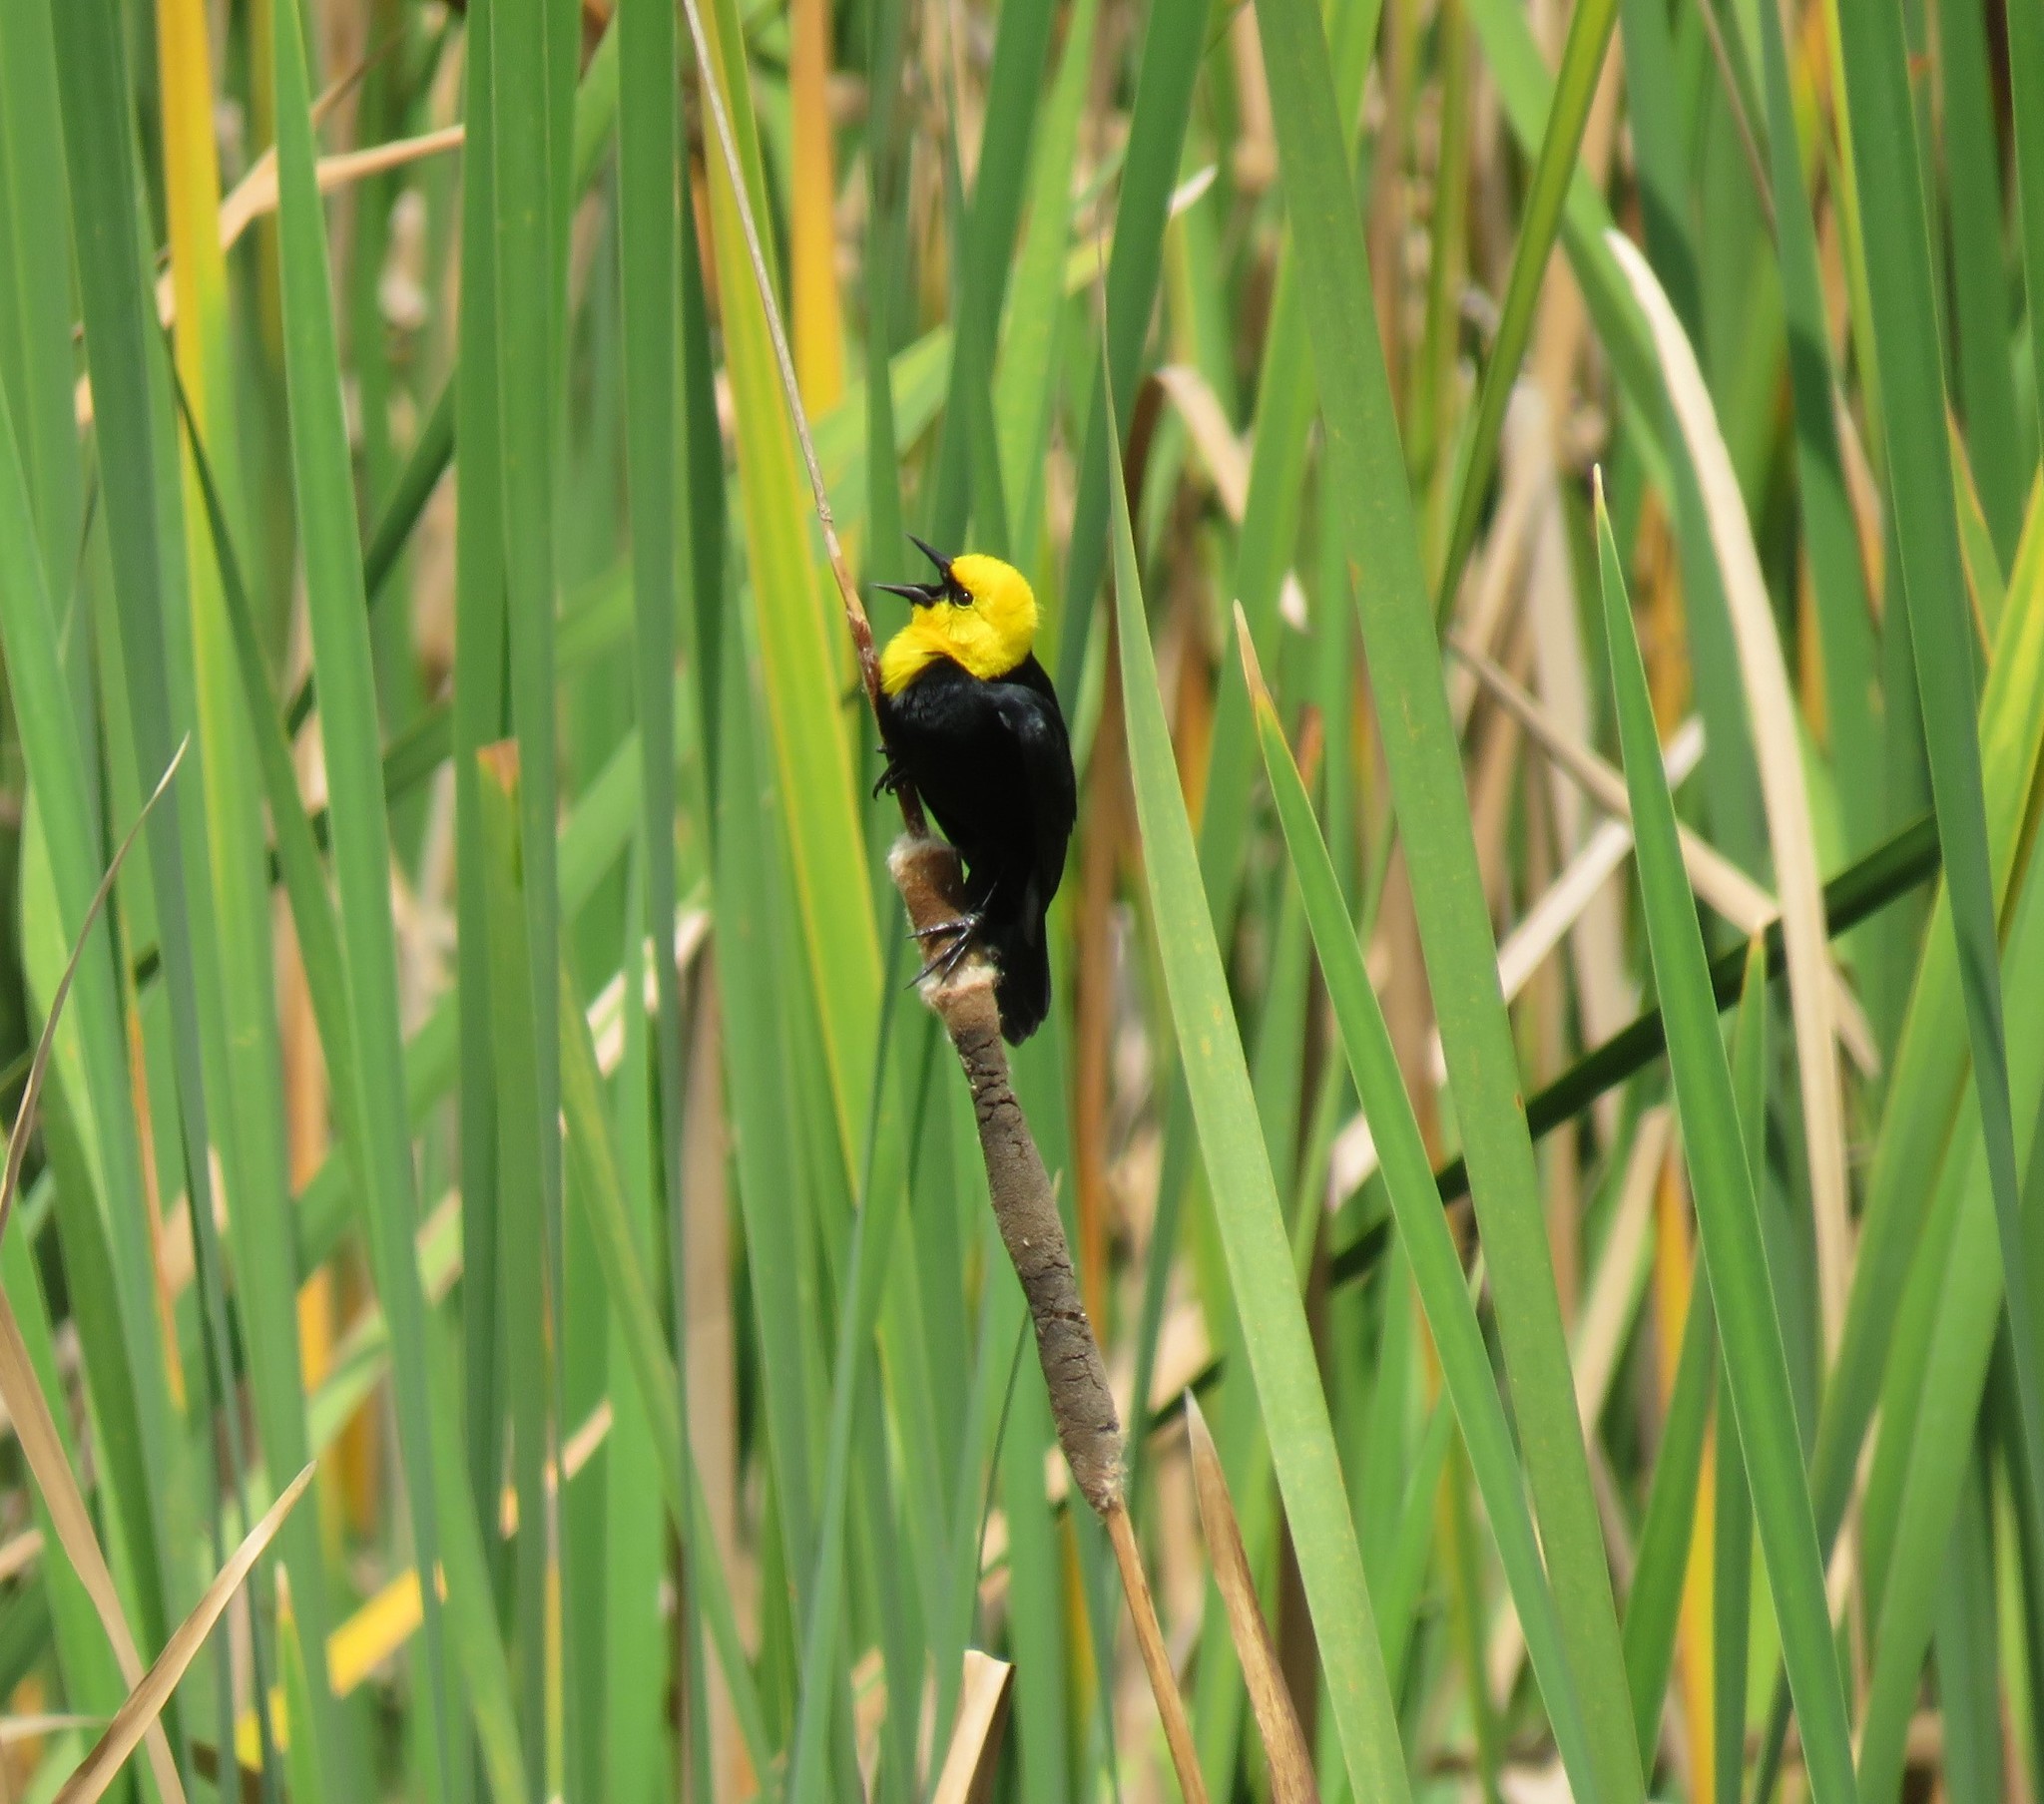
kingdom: Animalia
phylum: Chordata
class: Aves
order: Passeriformes
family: Icteridae
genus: Chrysomus
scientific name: Chrysomus icterocephalus
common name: Yellow-hooded blackbird
